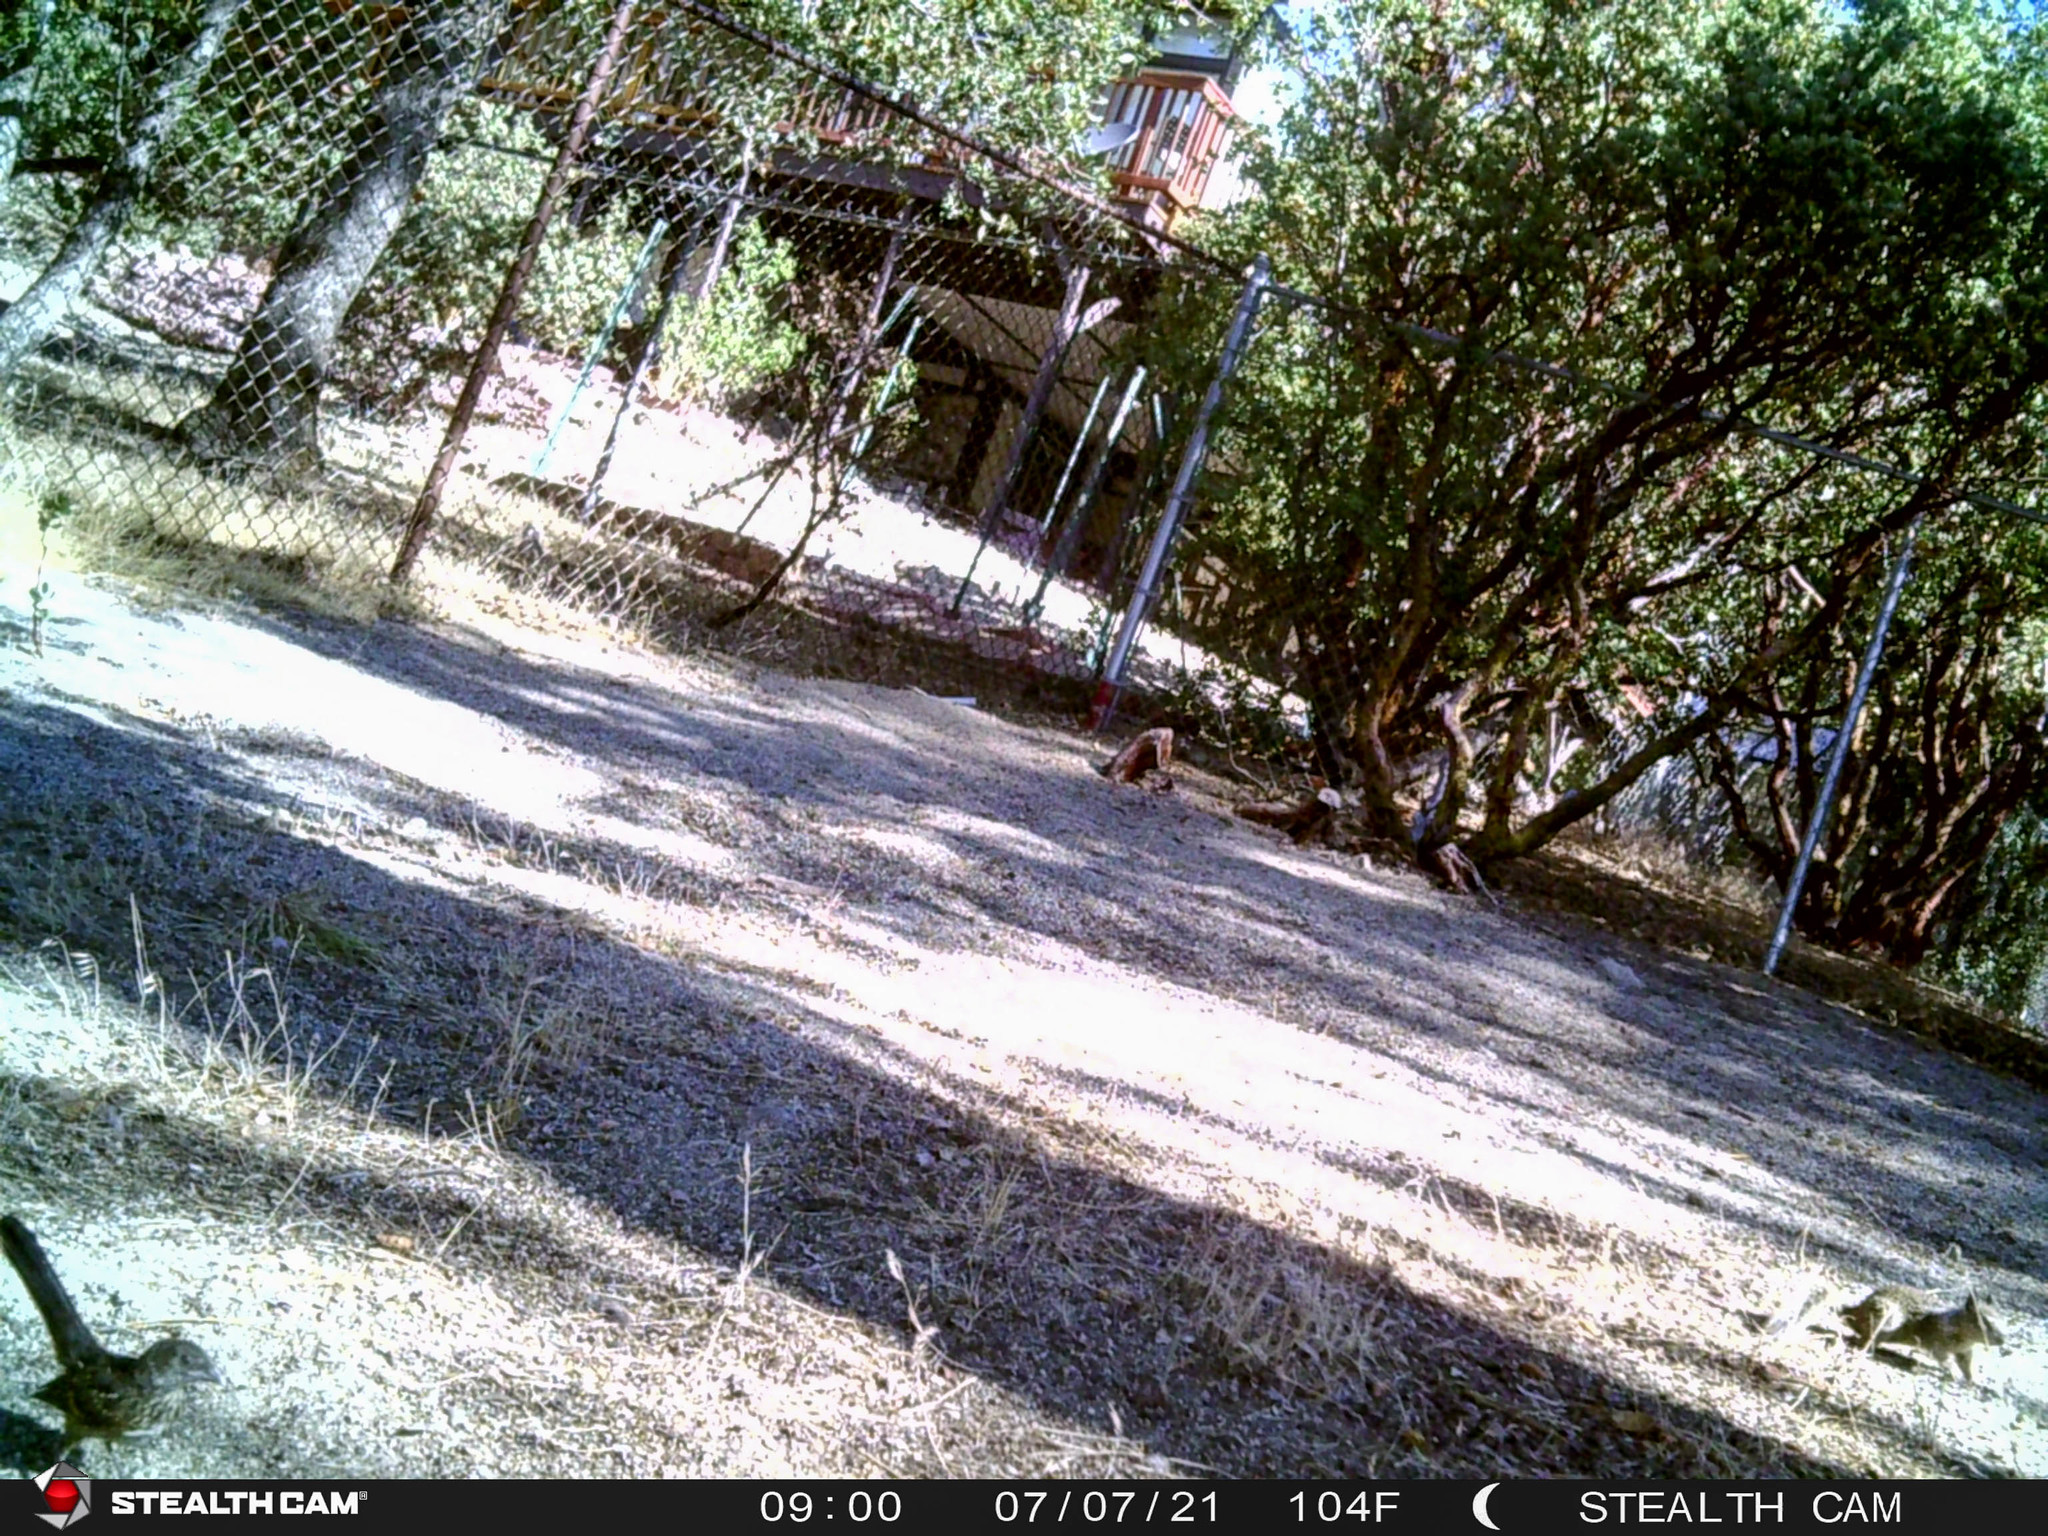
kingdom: Animalia
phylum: Chordata
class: Mammalia
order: Rodentia
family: Sciuridae
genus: Otospermophilus
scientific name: Otospermophilus beecheyi
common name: California ground squirrel
